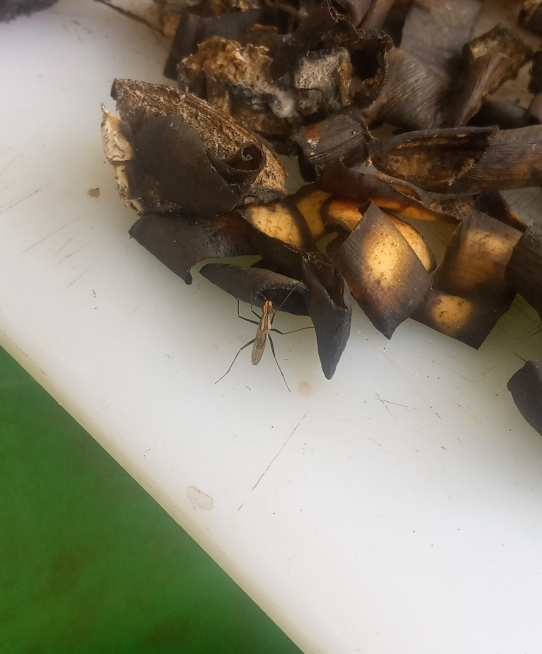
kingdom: Animalia
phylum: Arthropoda
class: Insecta
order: Diptera
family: Neriidae
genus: Telostylinus
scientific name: Telostylinus lineolatus
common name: Banana stalk fly
